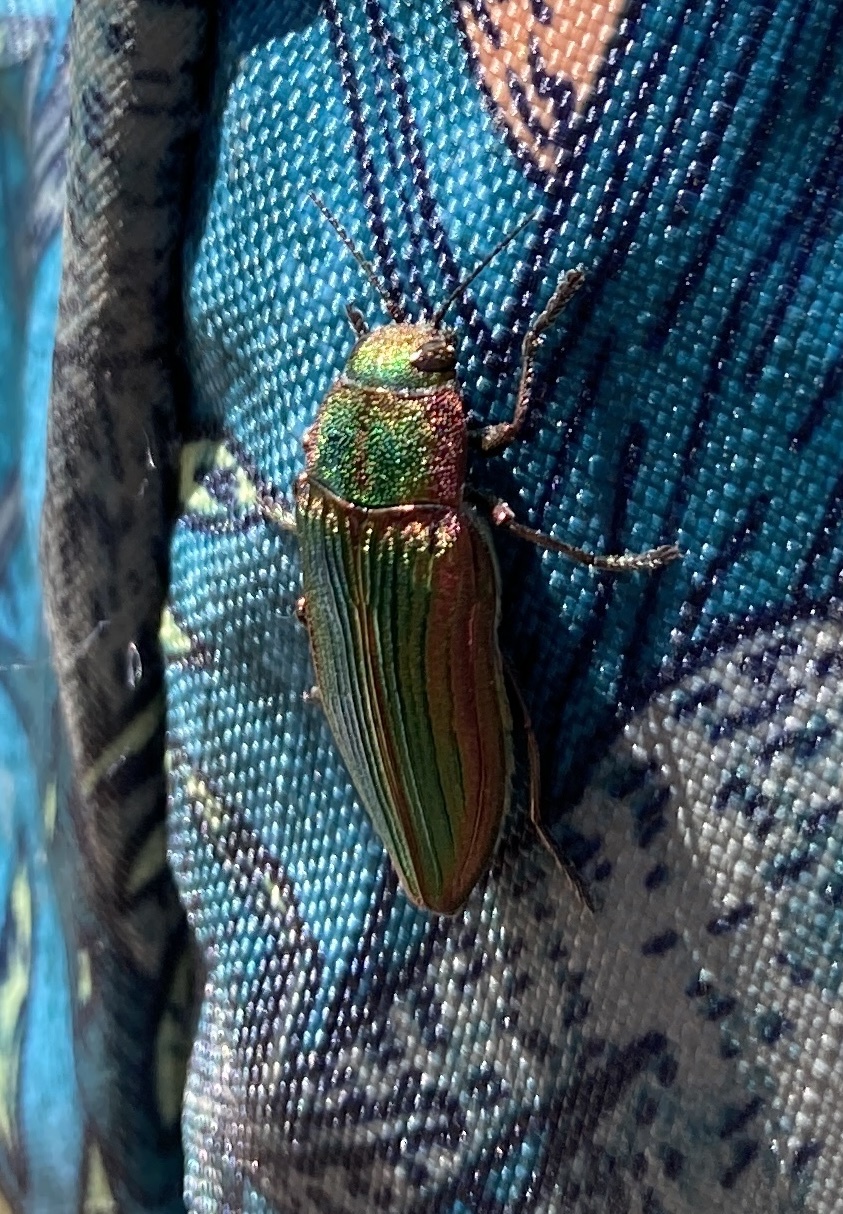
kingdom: Animalia
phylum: Arthropoda
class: Insecta
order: Coleoptera
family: Buprestidae
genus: Buprestis
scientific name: Buprestis intricata
